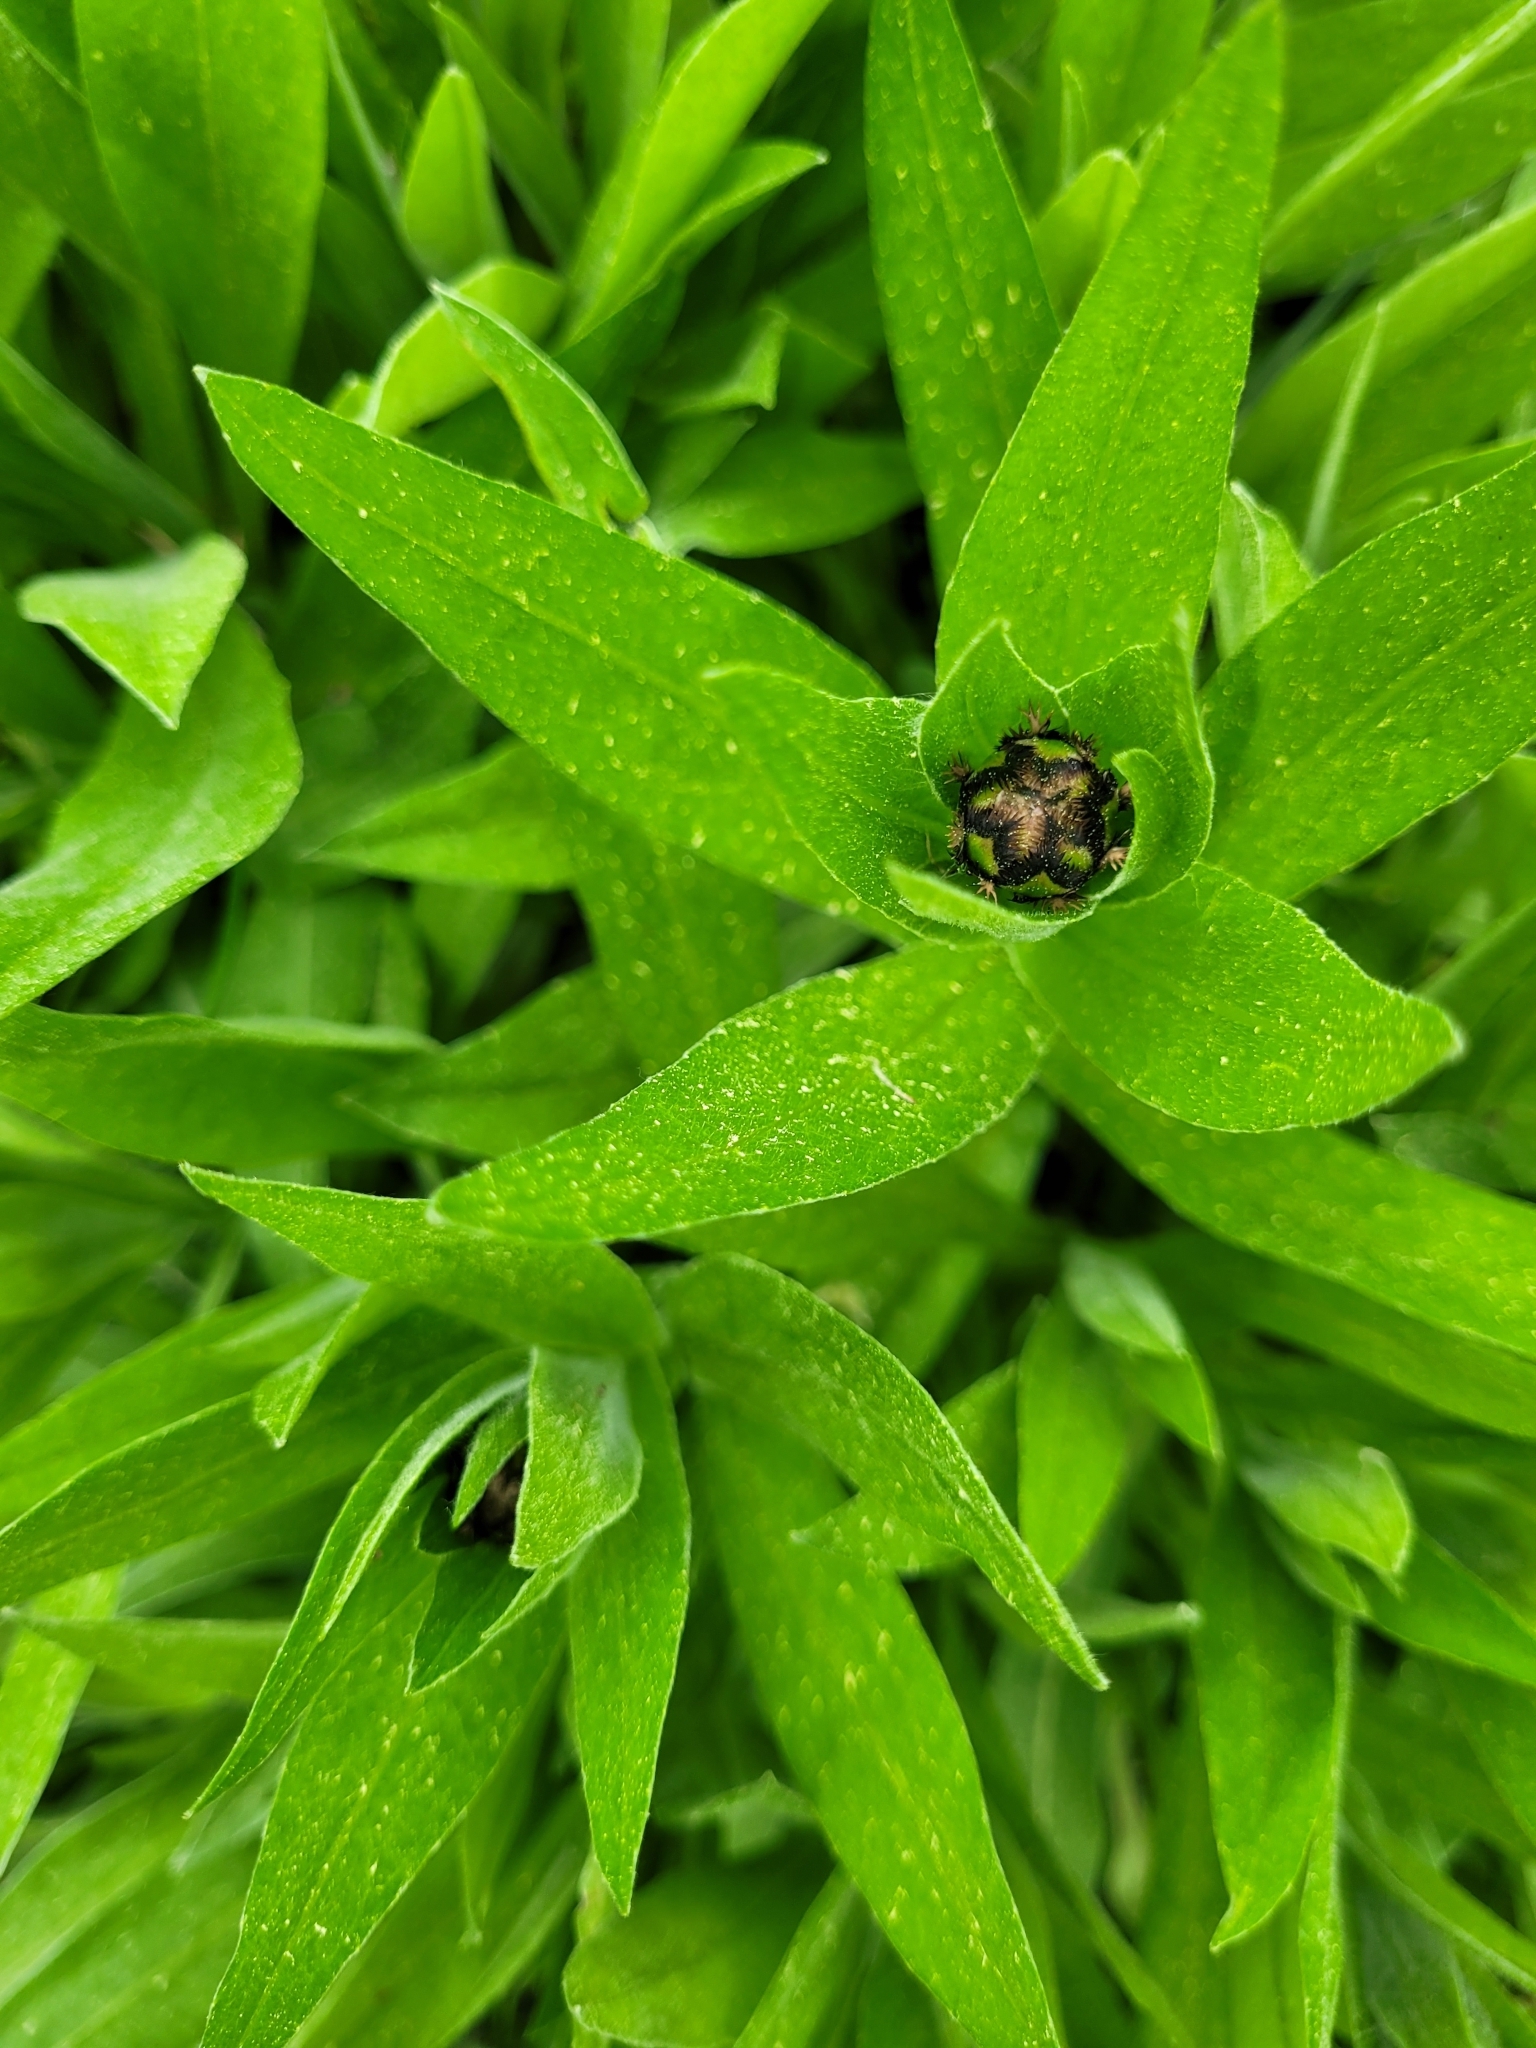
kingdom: Plantae
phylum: Tracheophyta
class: Magnoliopsida
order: Asterales
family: Asteraceae
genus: Centaurea
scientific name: Centaurea montana
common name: Perennial cornflower
